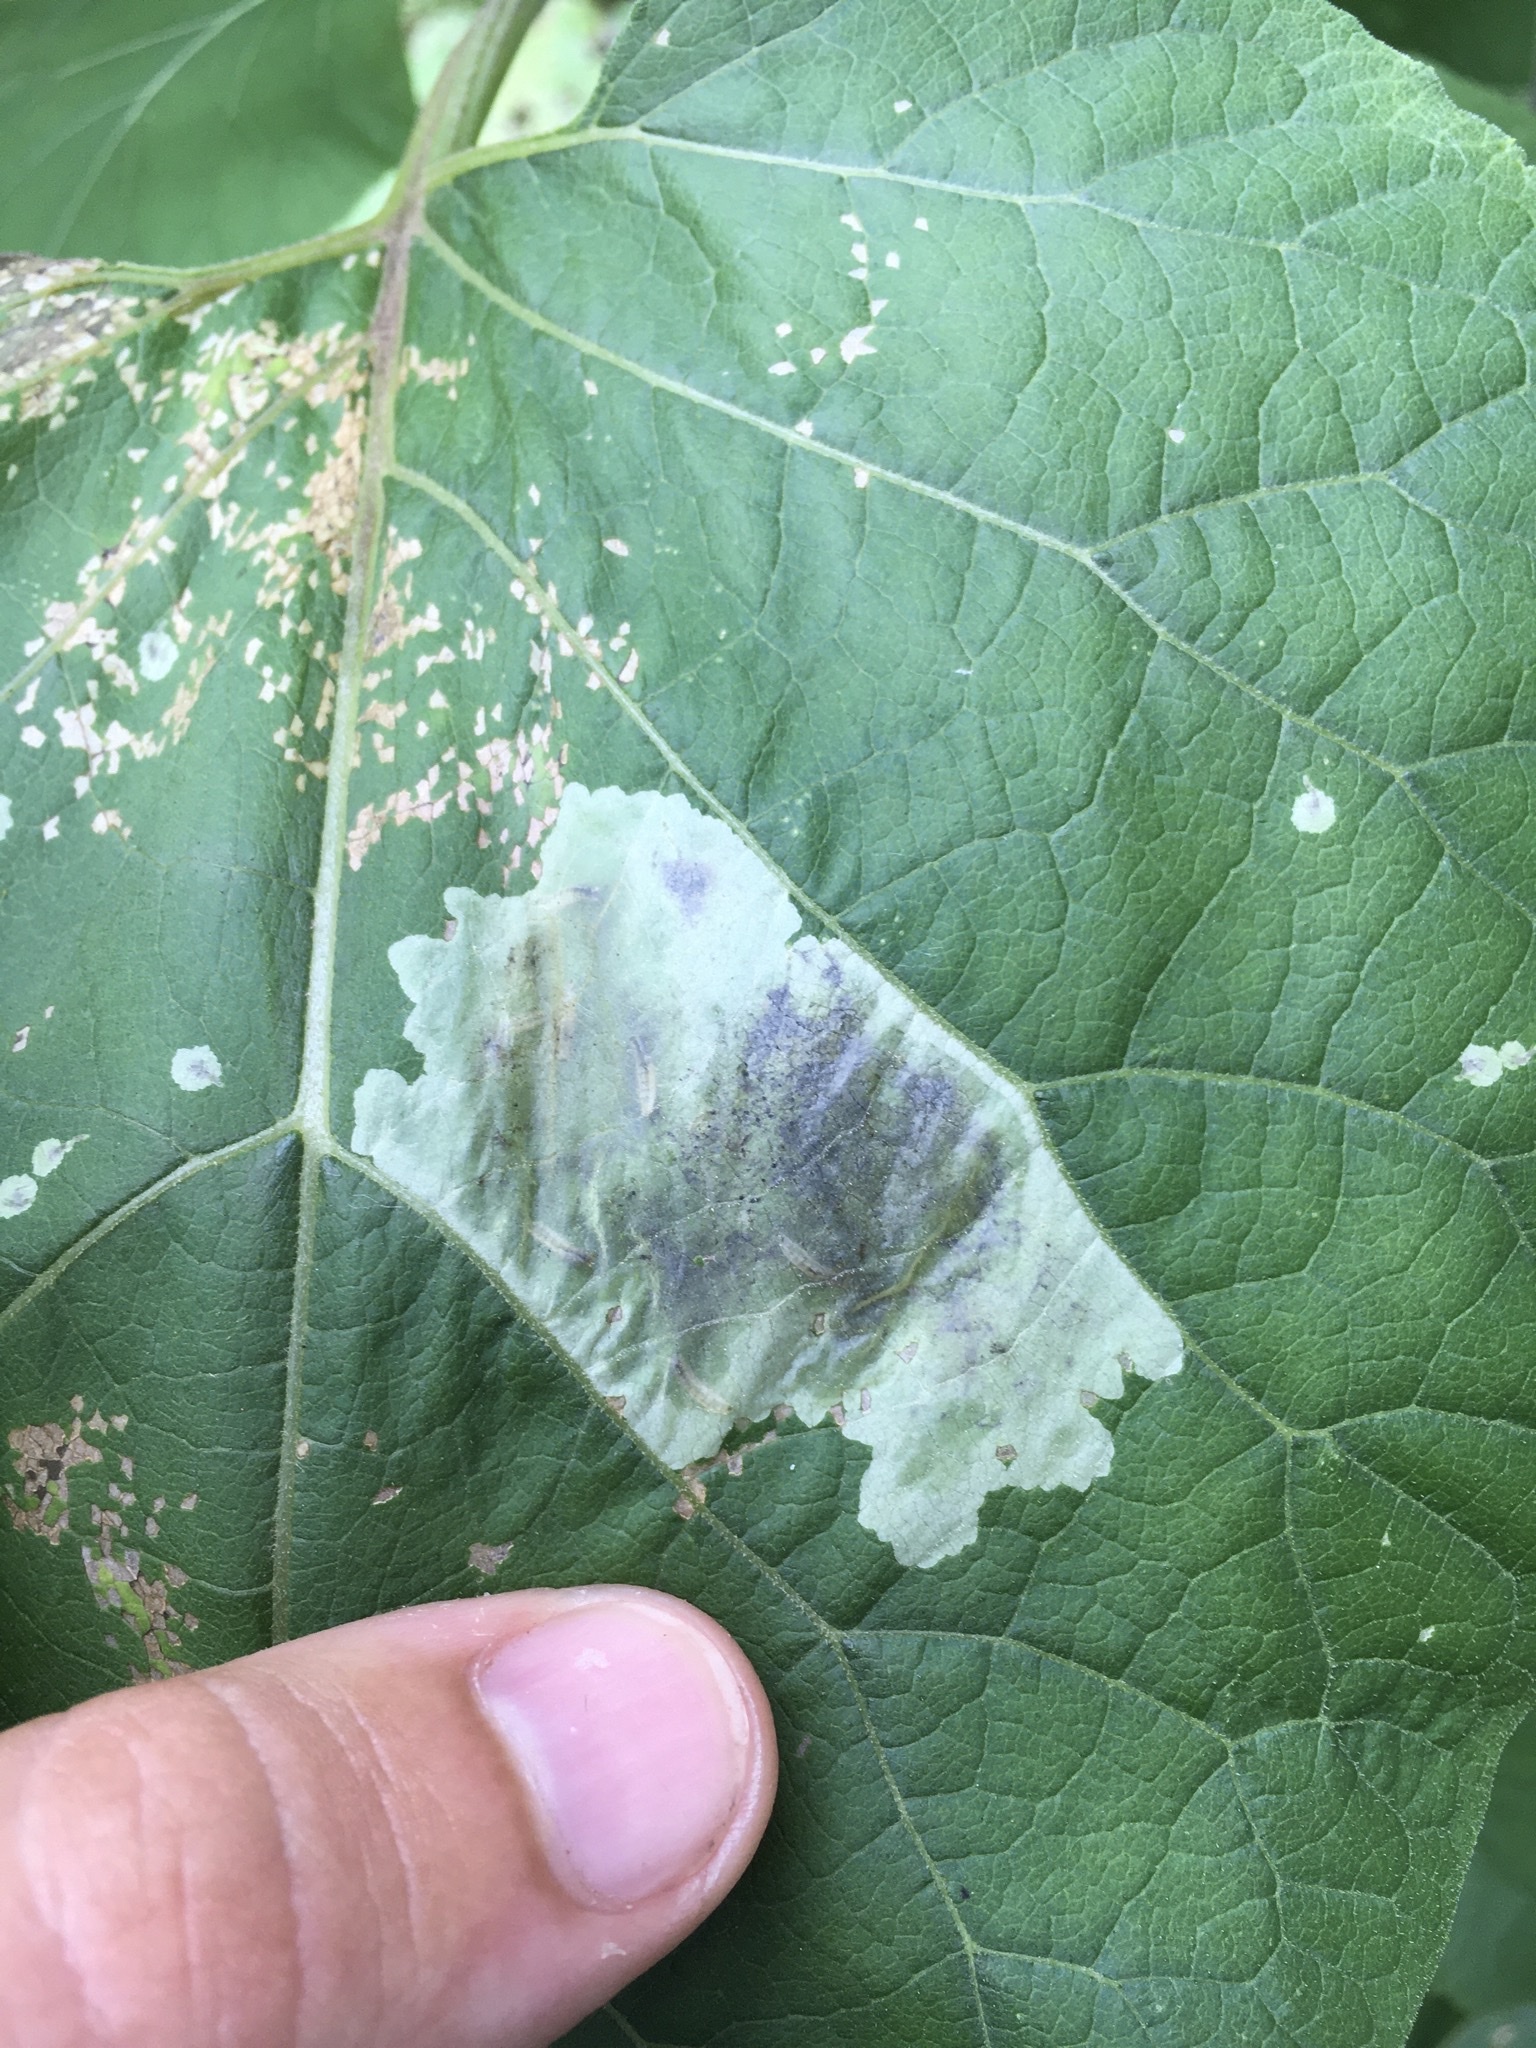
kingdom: Animalia
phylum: Arthropoda
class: Insecta
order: Diptera
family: Agromyzidae
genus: Calycomyza
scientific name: Calycomyza flavinotum
